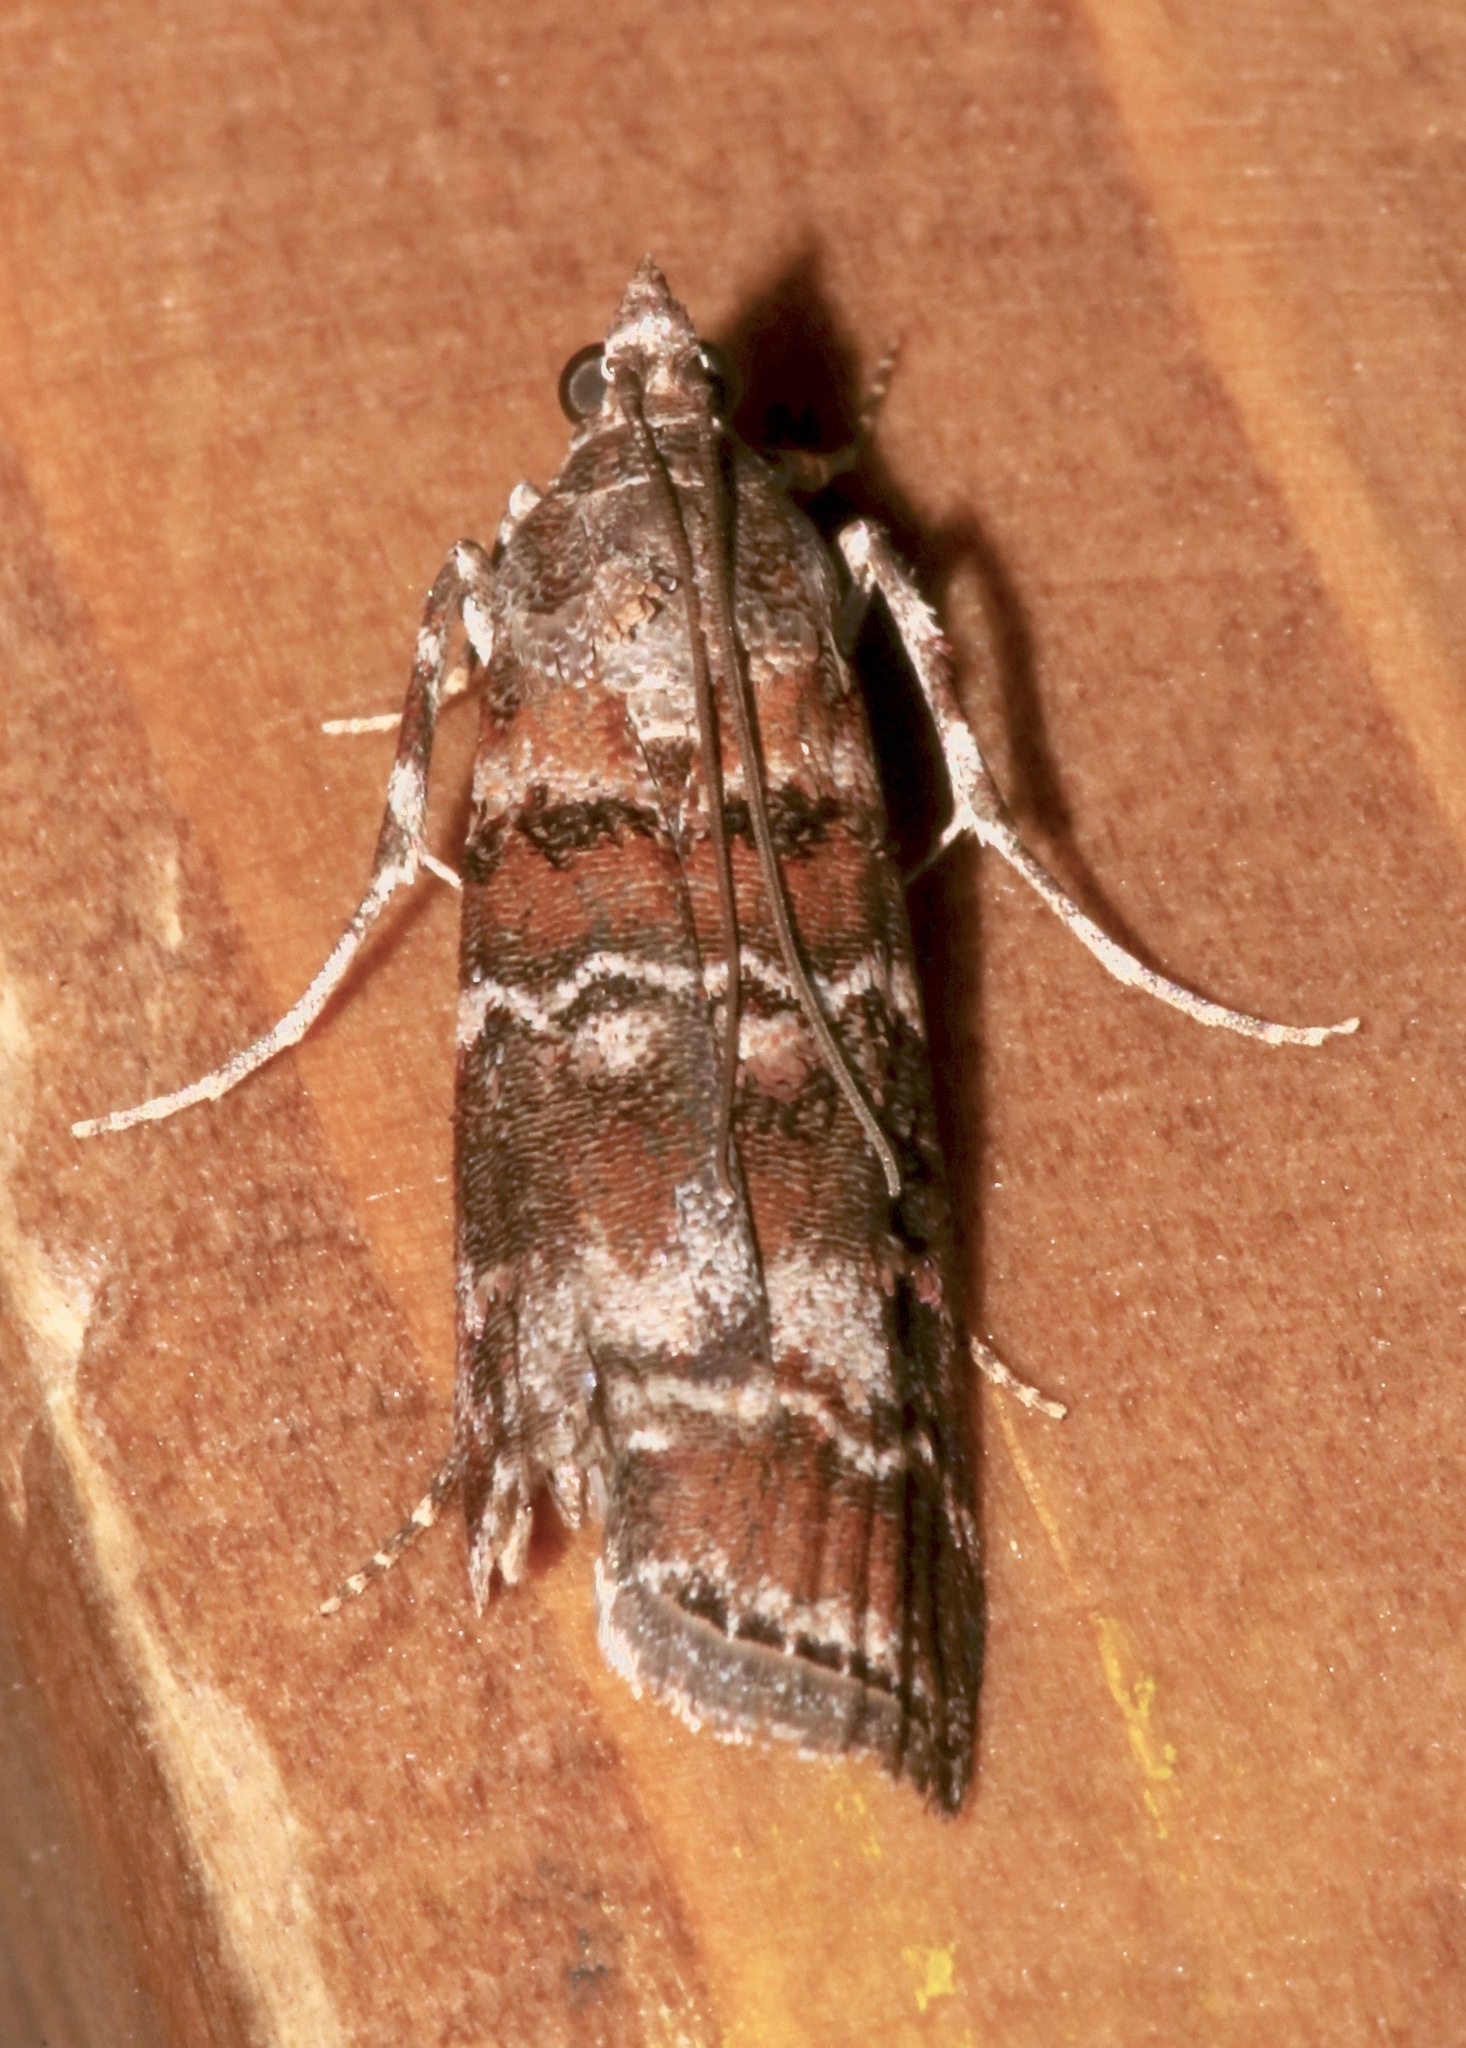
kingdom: Animalia
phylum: Arthropoda
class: Insecta
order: Lepidoptera
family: Pyralidae
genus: Dioryctria
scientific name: Dioryctria cambiicola
